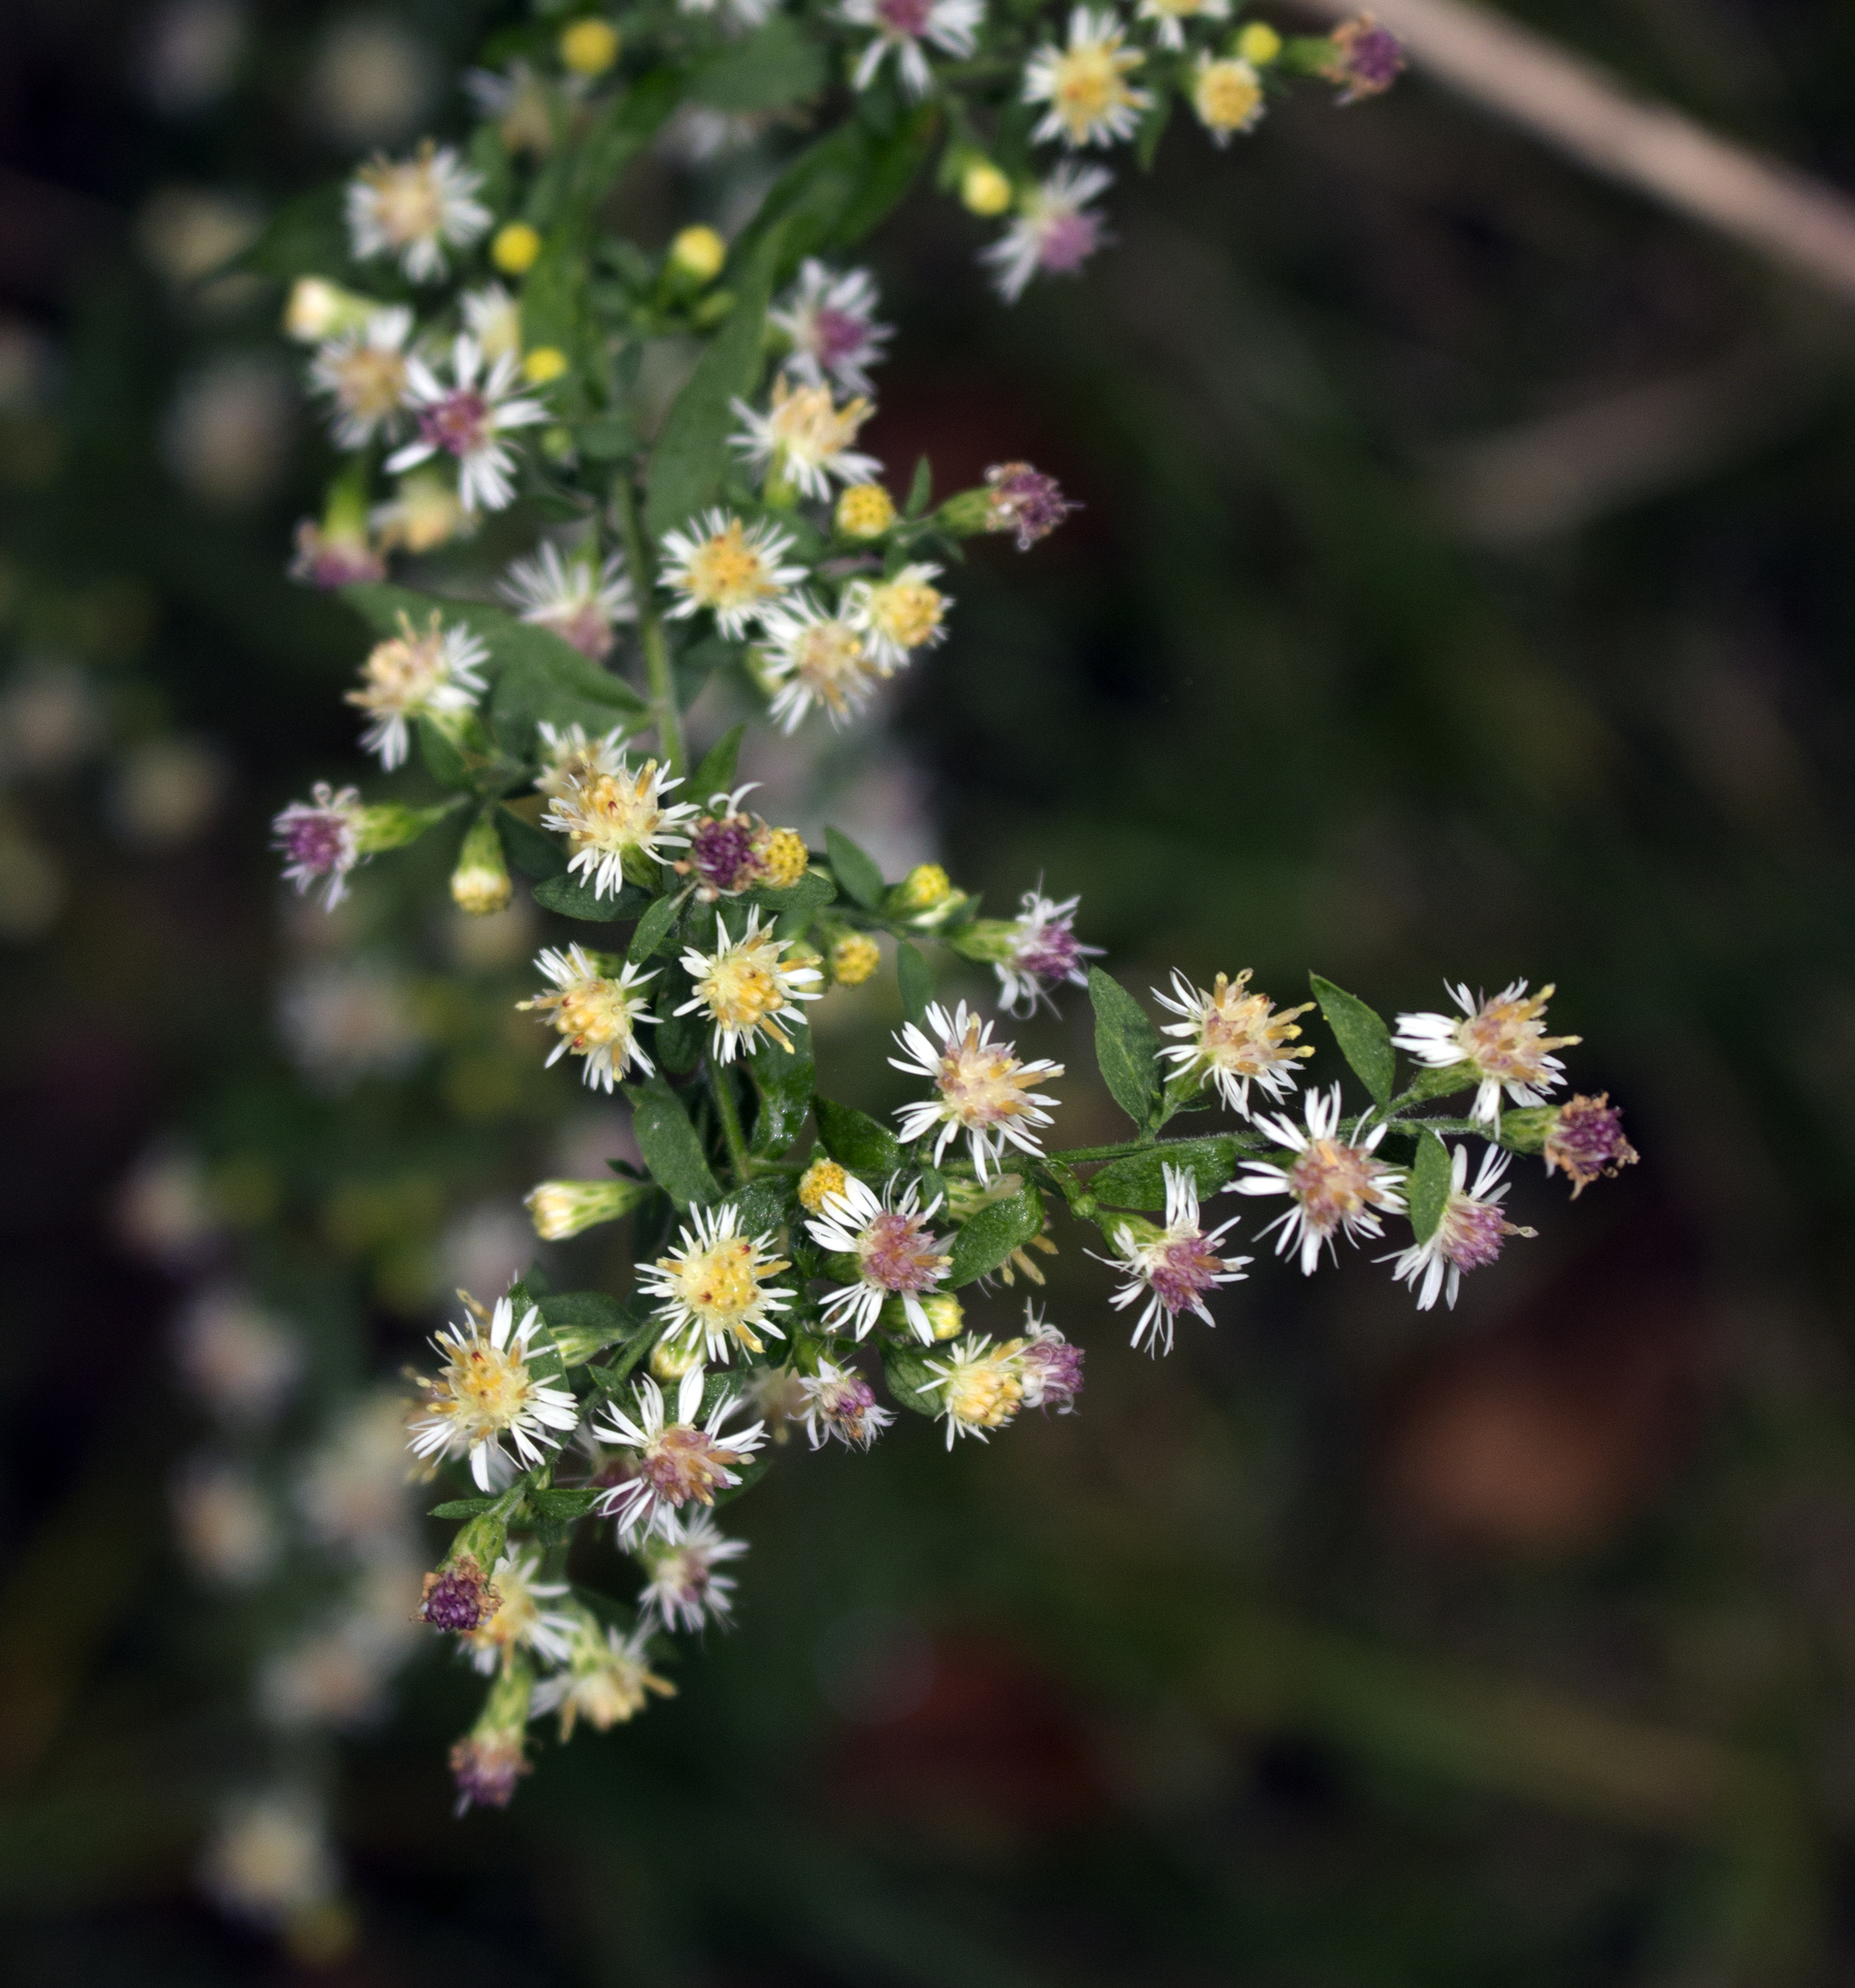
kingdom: Plantae
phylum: Tracheophyta
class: Magnoliopsida
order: Asterales
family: Asteraceae
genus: Symphyotrichum
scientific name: Symphyotrichum lateriflorum
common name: Calico aster
